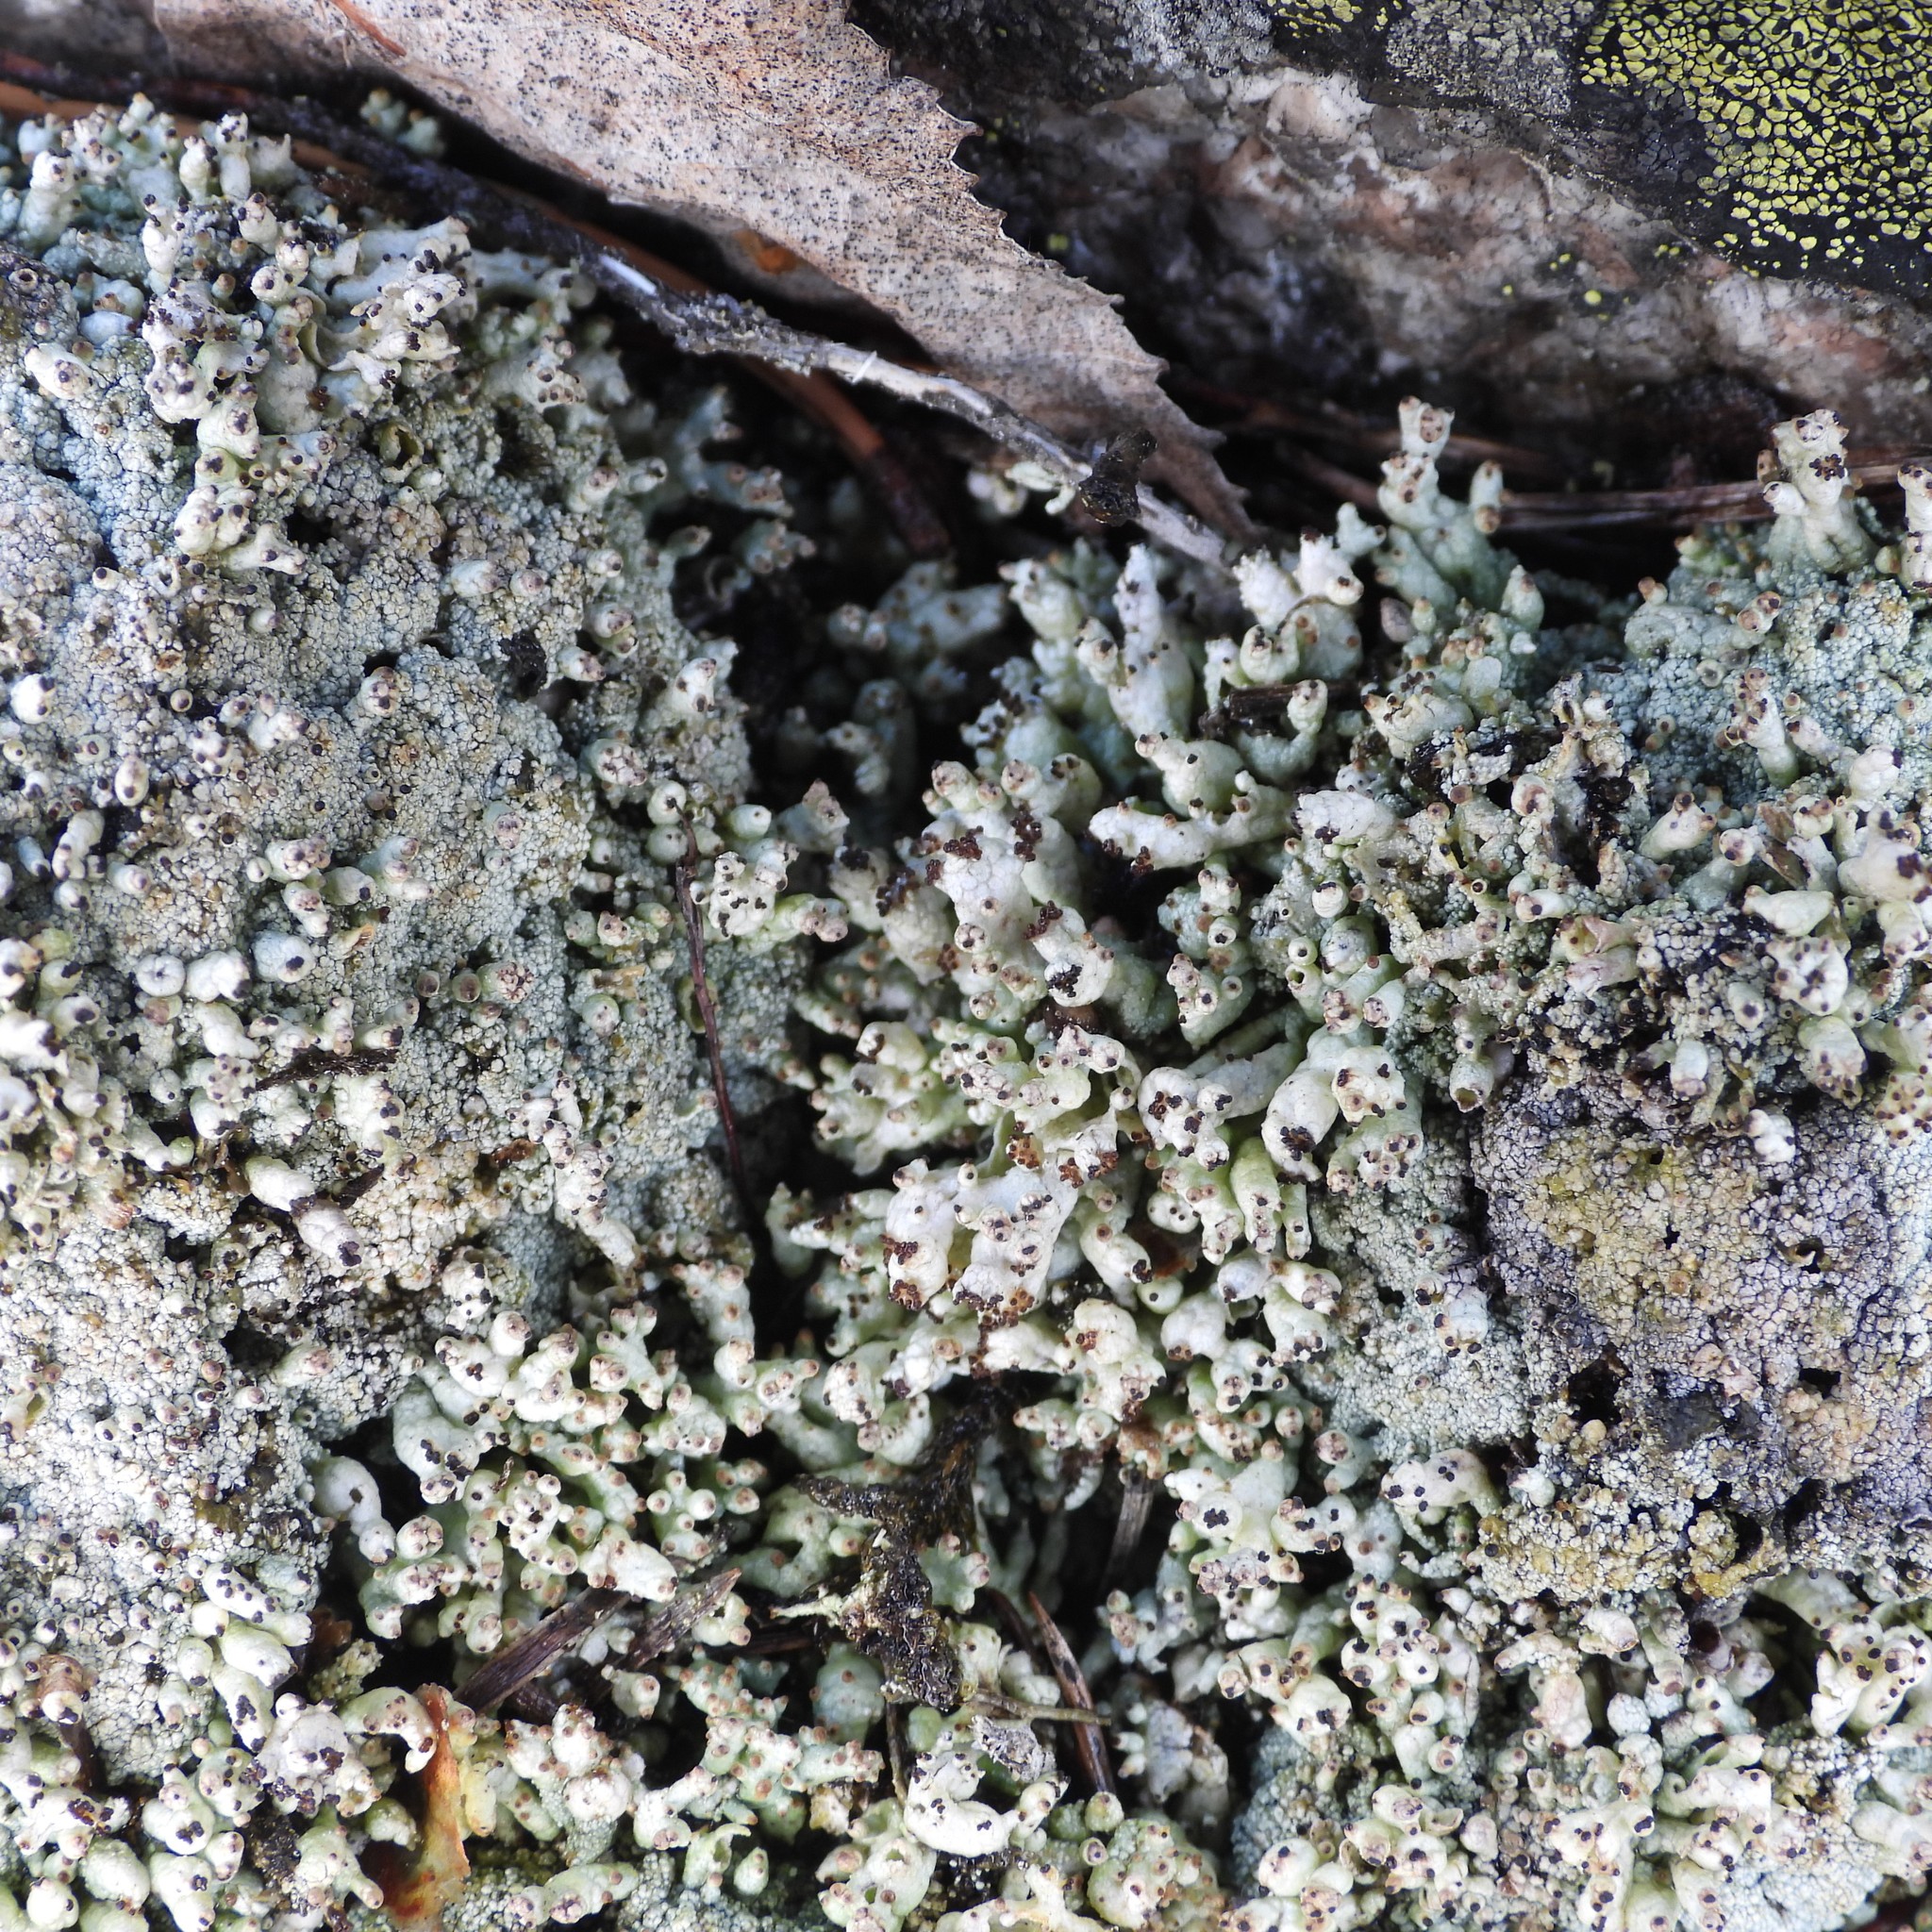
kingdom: Fungi
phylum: Ascomycota
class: Lecanoromycetes
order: Lecanorales
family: Cladoniaceae
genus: Pycnothelia
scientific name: Pycnothelia papillaria
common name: Nipple lichen
